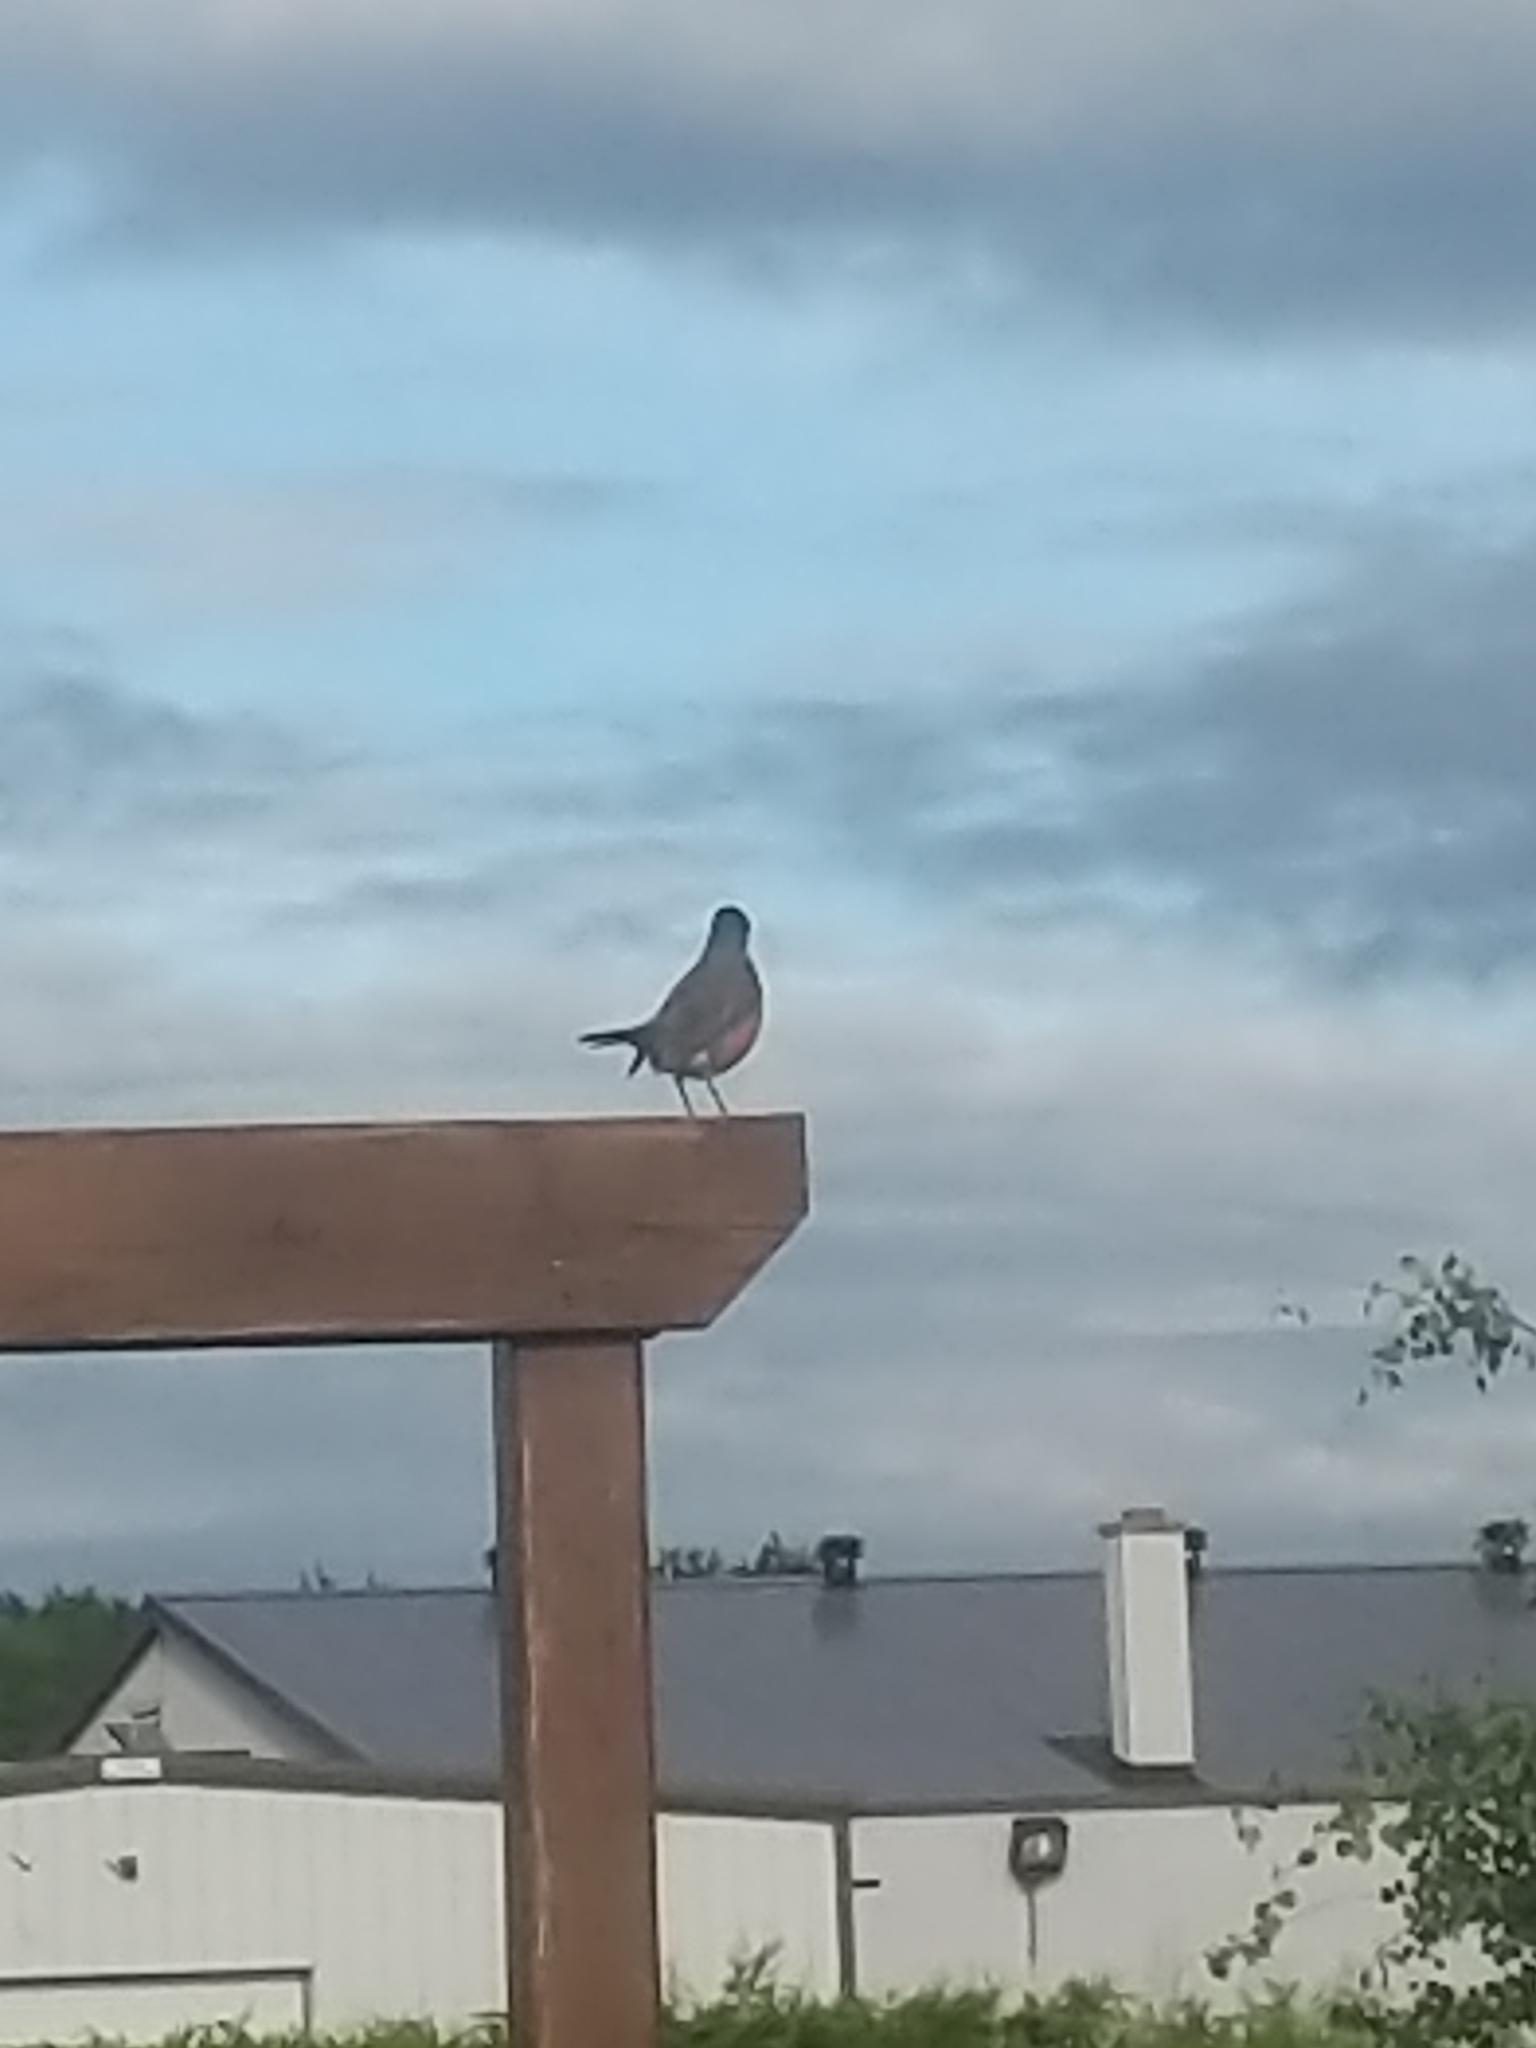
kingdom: Animalia
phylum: Chordata
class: Aves
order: Passeriformes
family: Turdidae
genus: Turdus
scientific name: Turdus migratorius
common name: American robin
